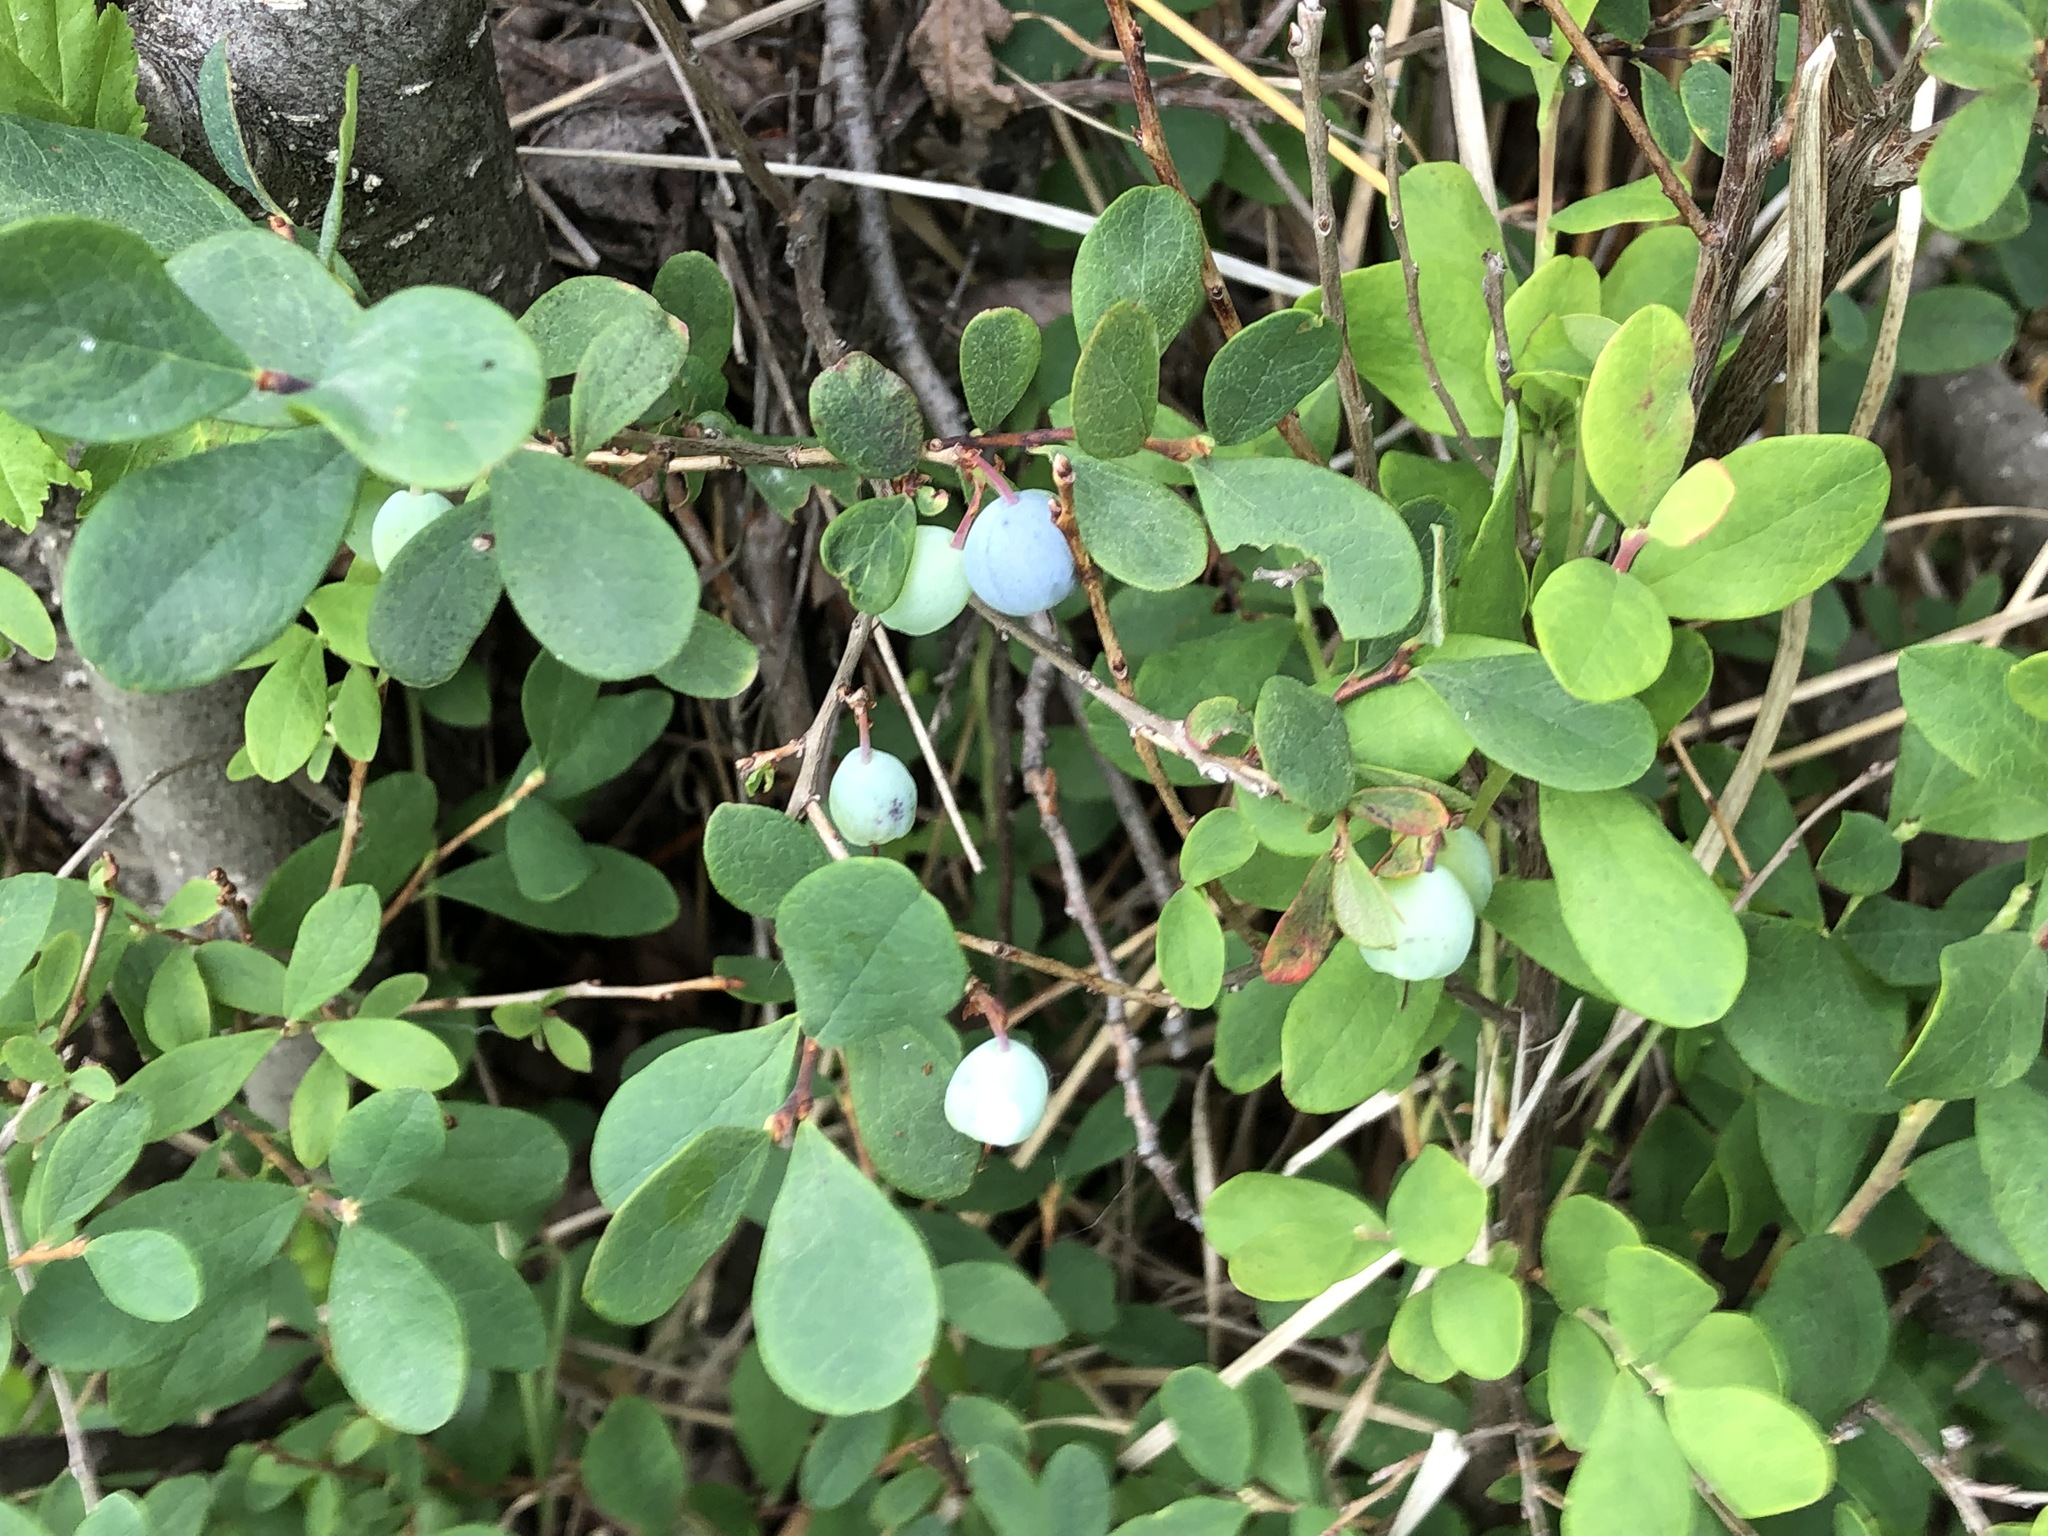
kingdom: Plantae
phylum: Tracheophyta
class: Magnoliopsida
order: Ericales
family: Ericaceae
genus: Vaccinium
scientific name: Vaccinium uliginosum
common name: Bog bilberry
